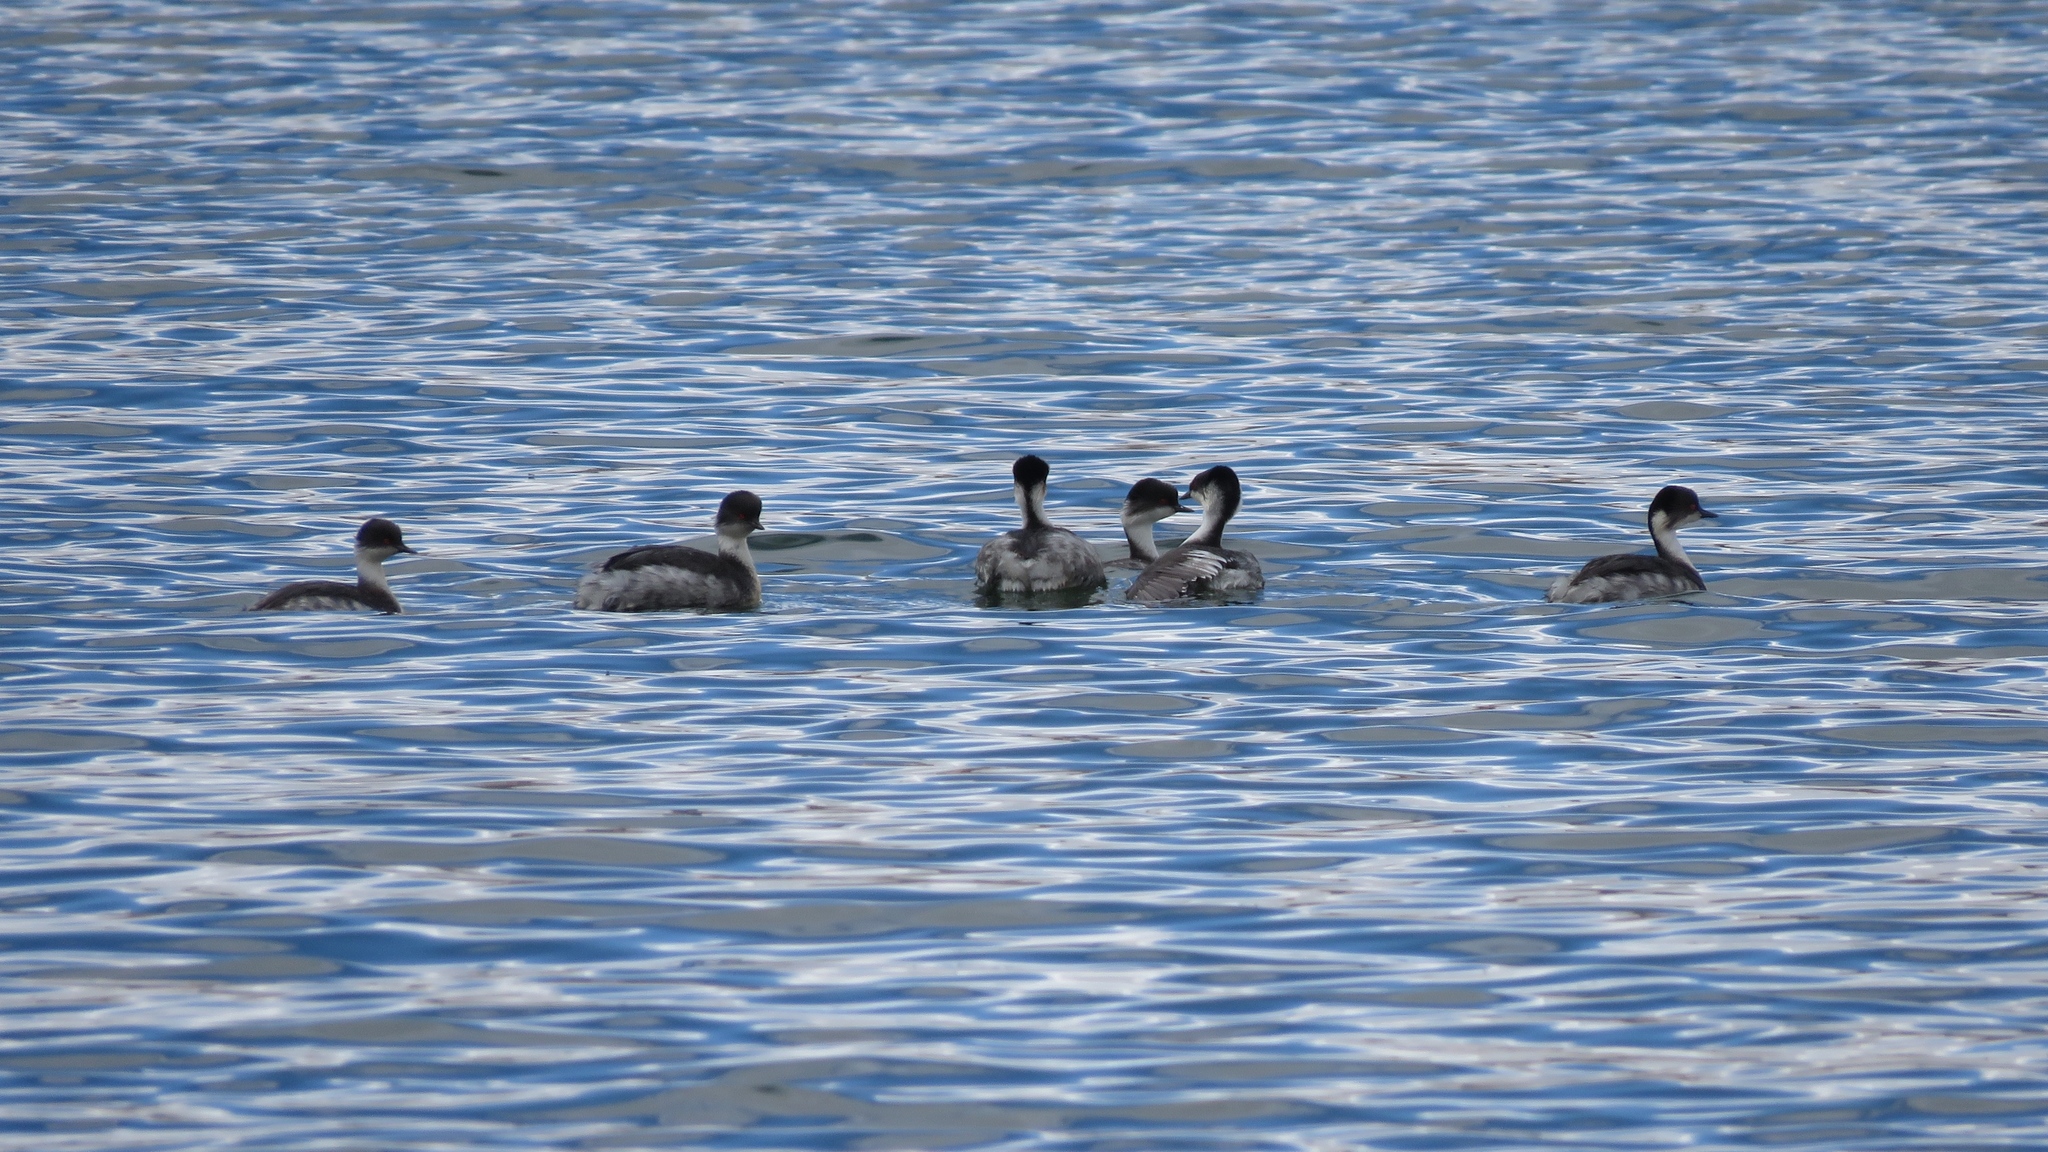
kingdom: Animalia
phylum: Chordata
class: Aves
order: Podicipediformes
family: Podicipedidae
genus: Podiceps
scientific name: Podiceps occipitalis
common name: Silvery grebe
